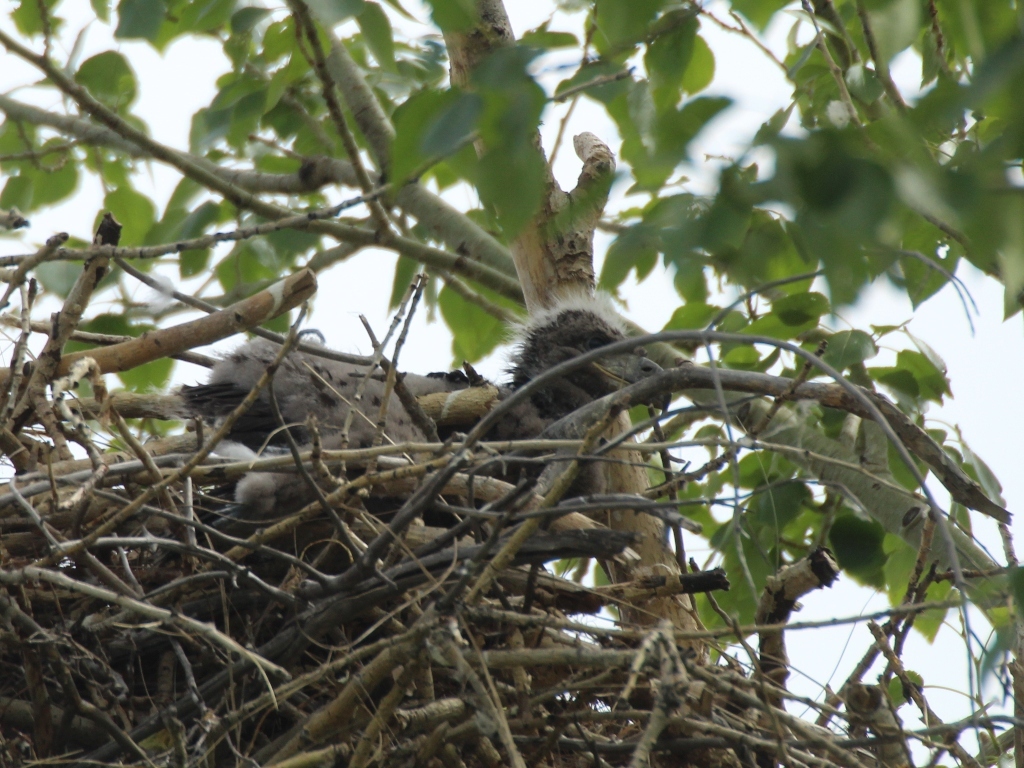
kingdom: Animalia
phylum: Chordata
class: Aves
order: Accipitriformes
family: Accipitridae
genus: Haliaeetus
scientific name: Haliaeetus albicilla
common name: White-tailed eagle
